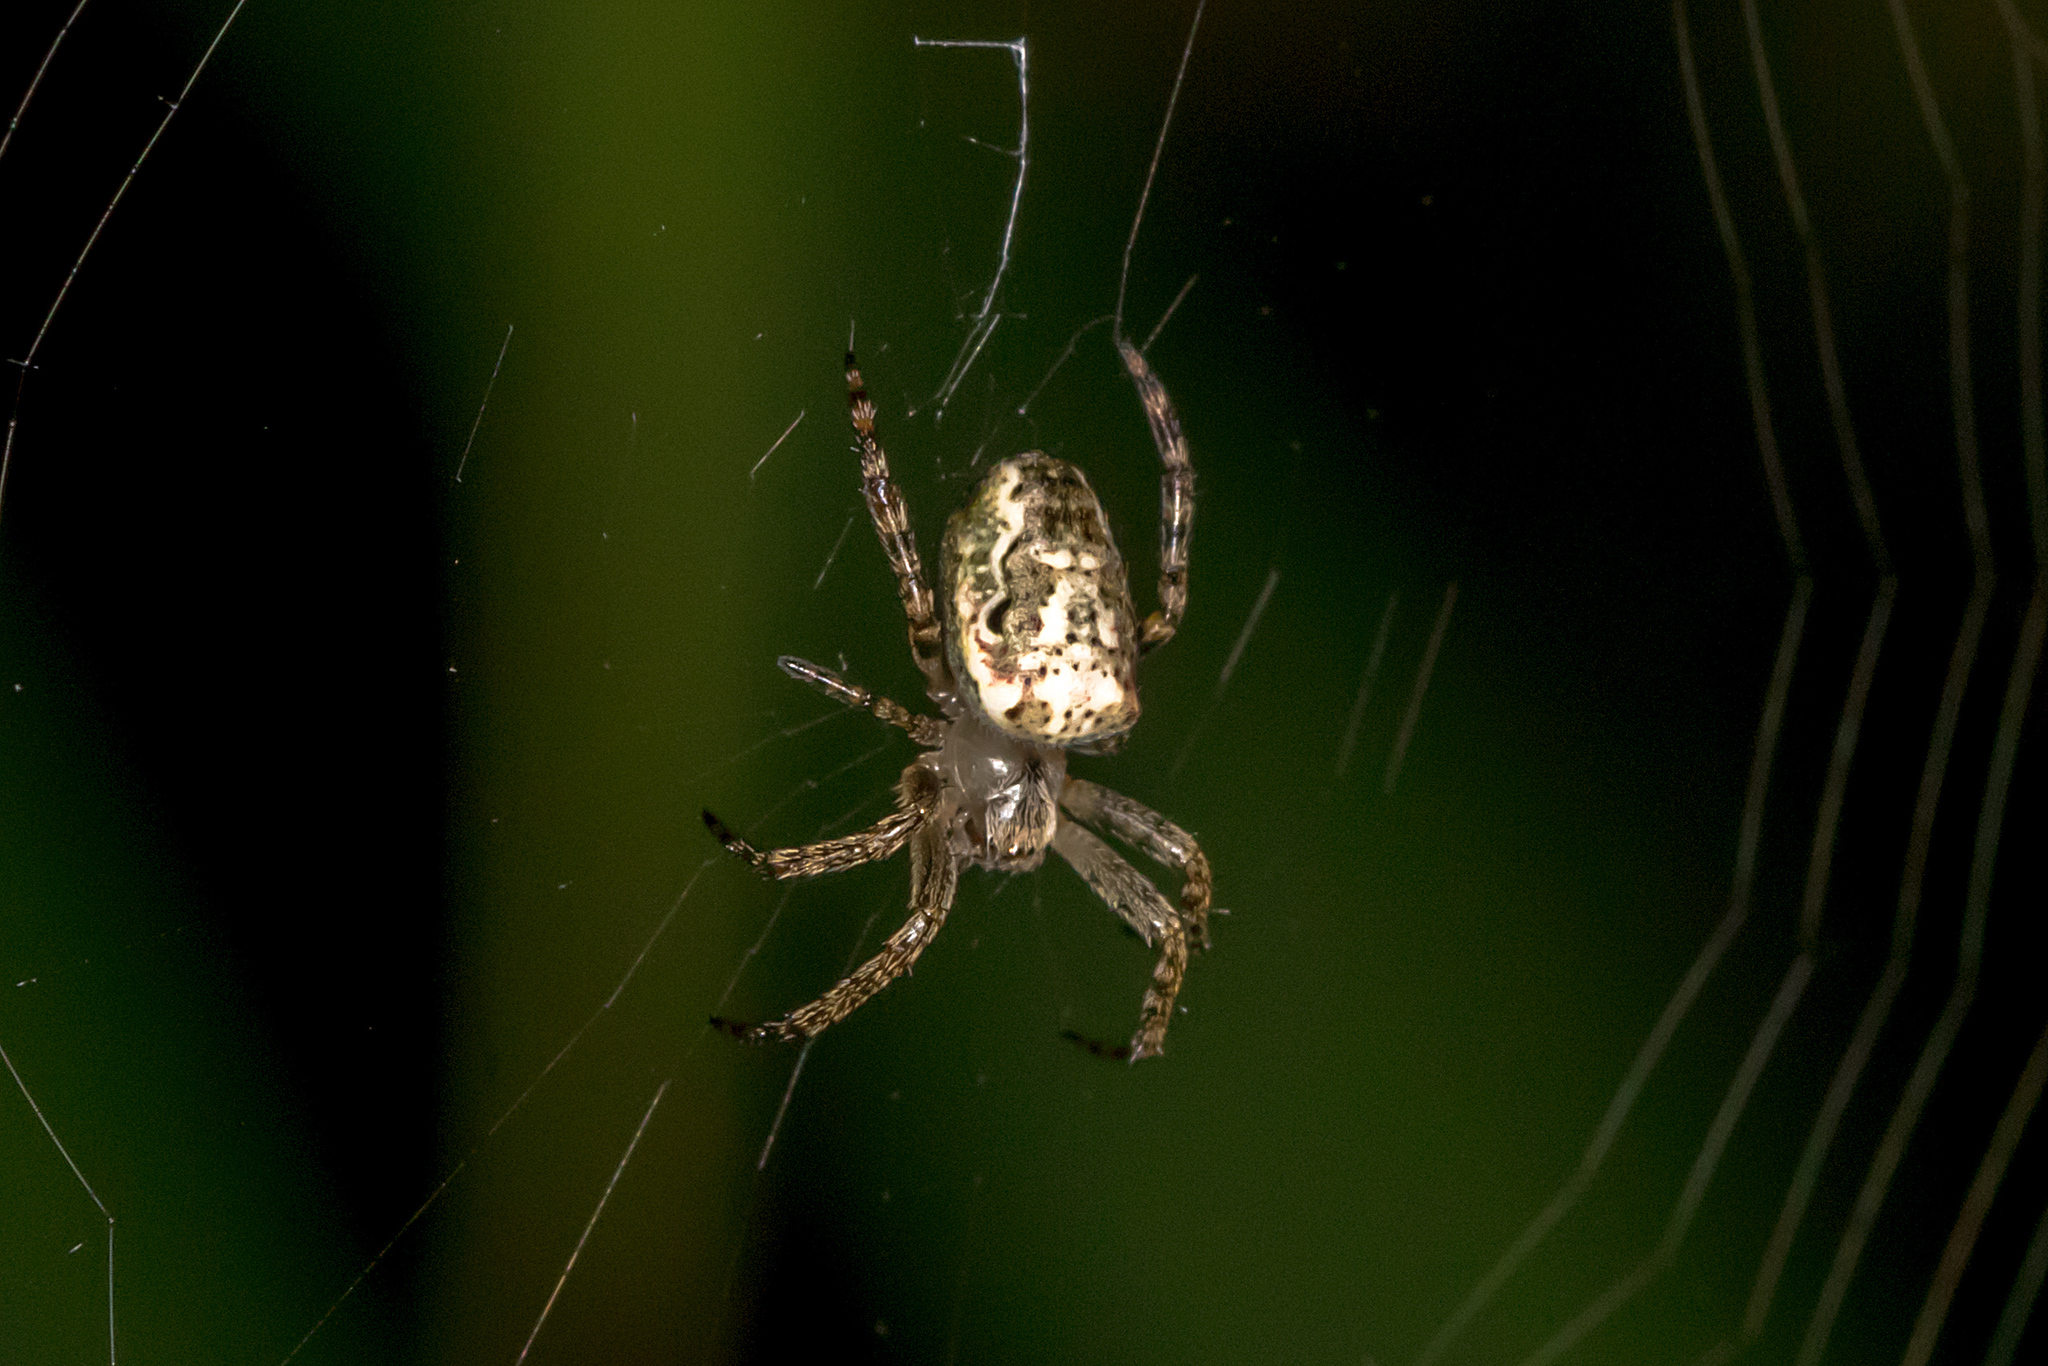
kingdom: Animalia
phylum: Arthropoda
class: Arachnida
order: Araneae
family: Araneidae
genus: Plebs
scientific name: Plebs eburnus
